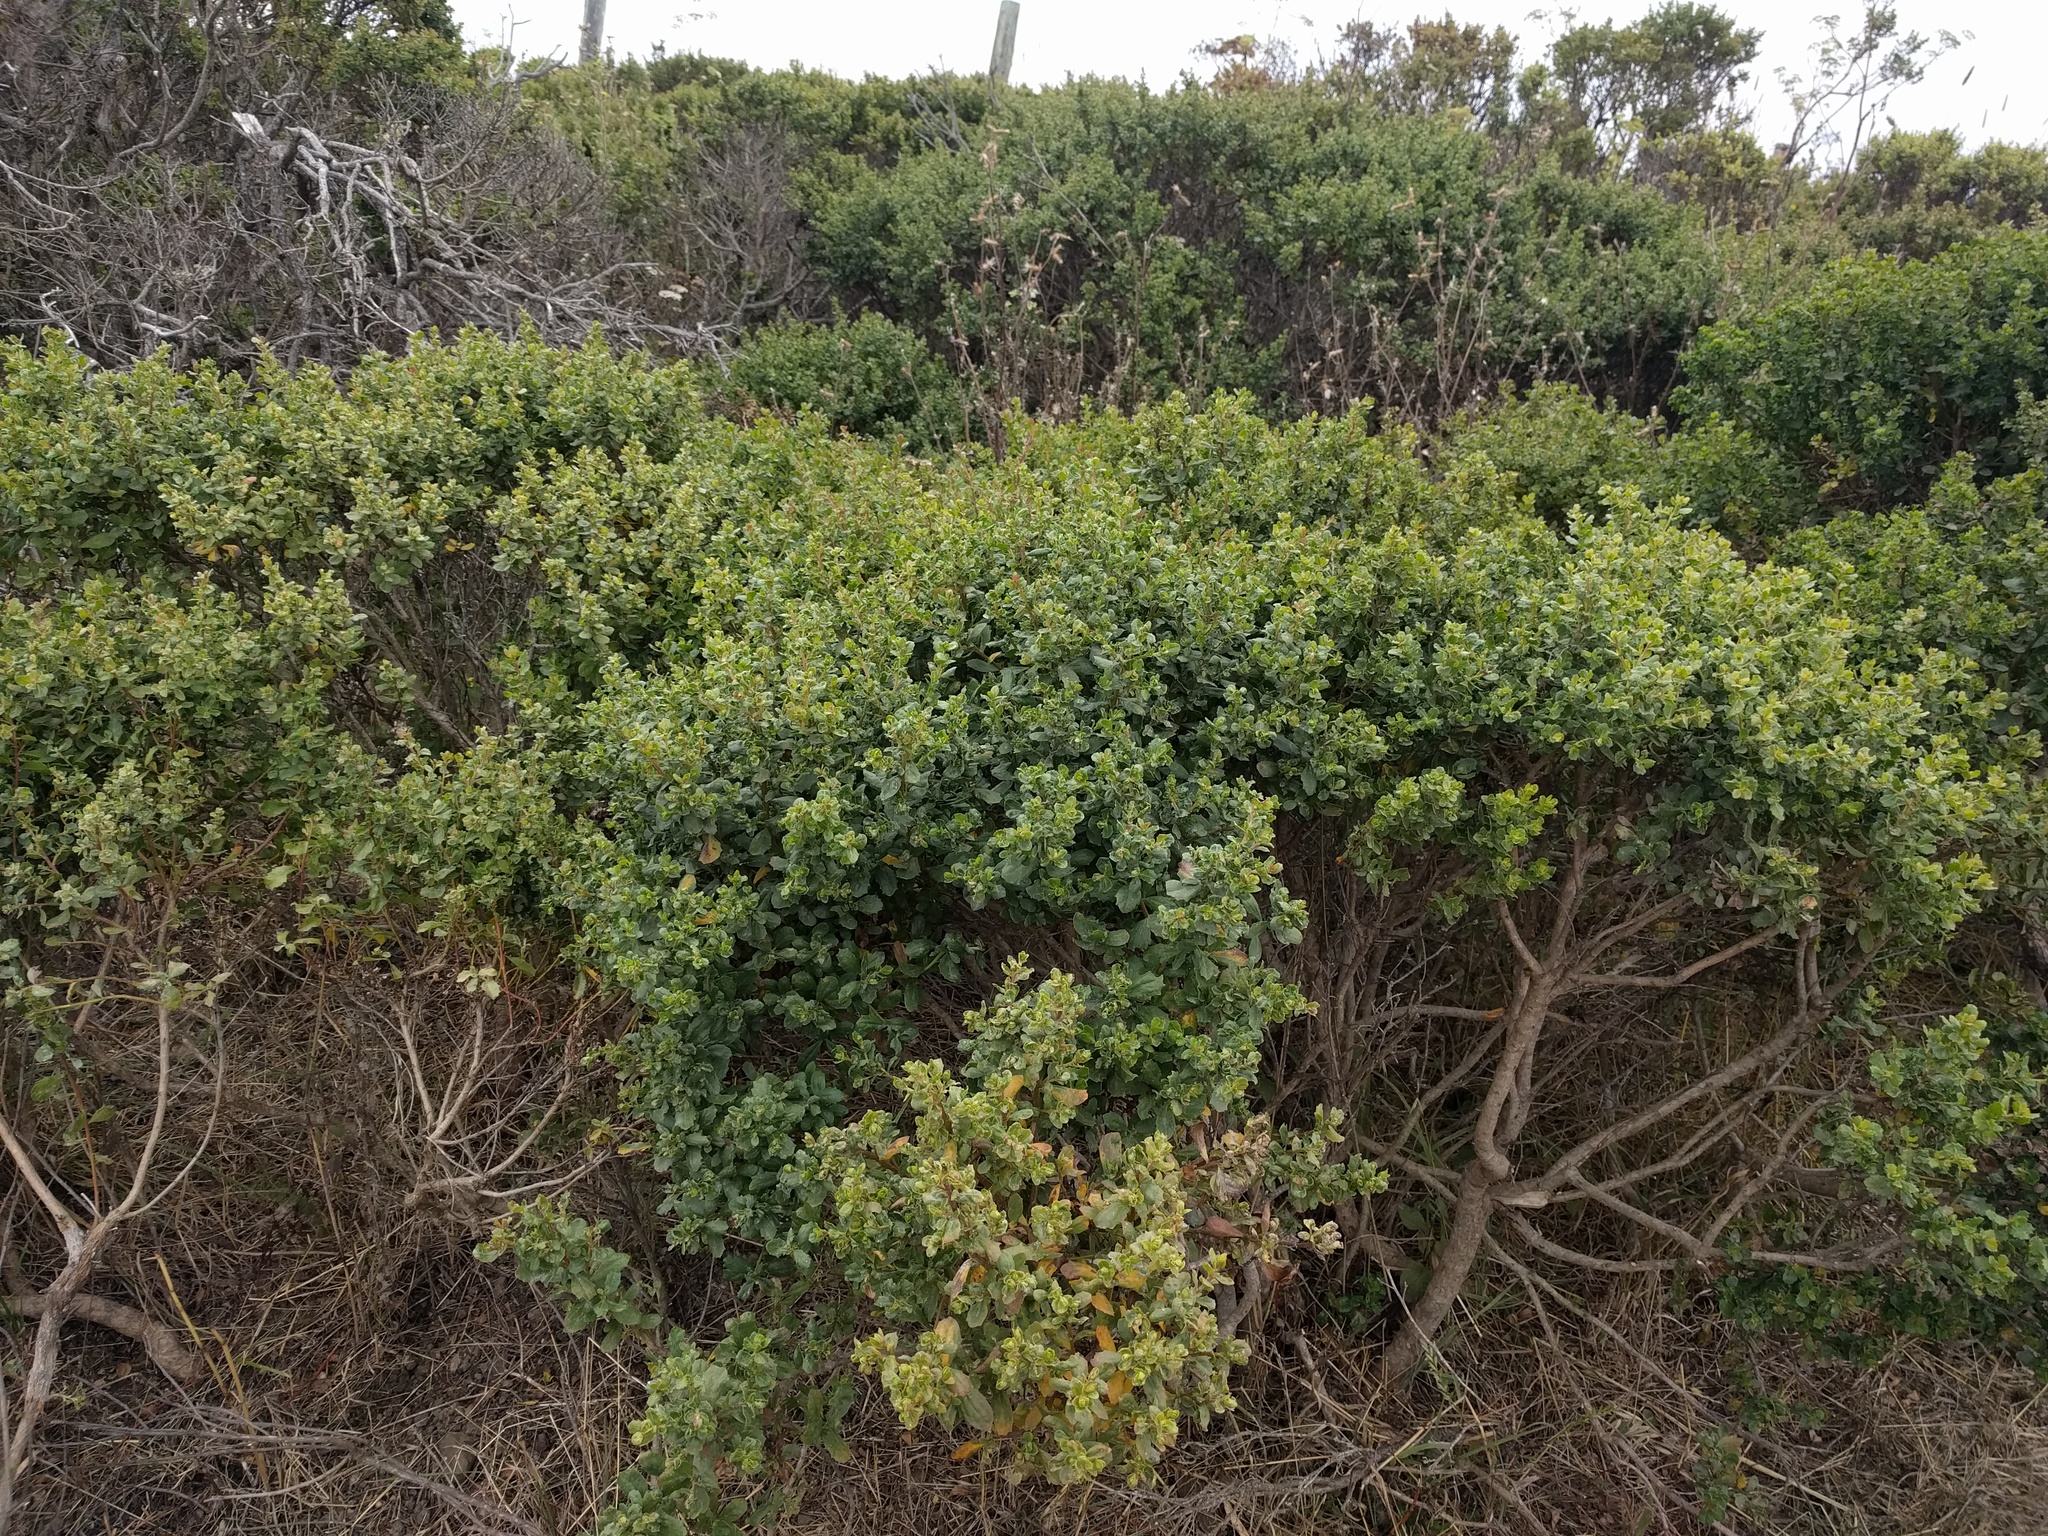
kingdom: Plantae
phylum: Tracheophyta
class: Magnoliopsida
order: Asterales
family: Asteraceae
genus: Baccharis
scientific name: Baccharis pilularis
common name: Coyotebrush
